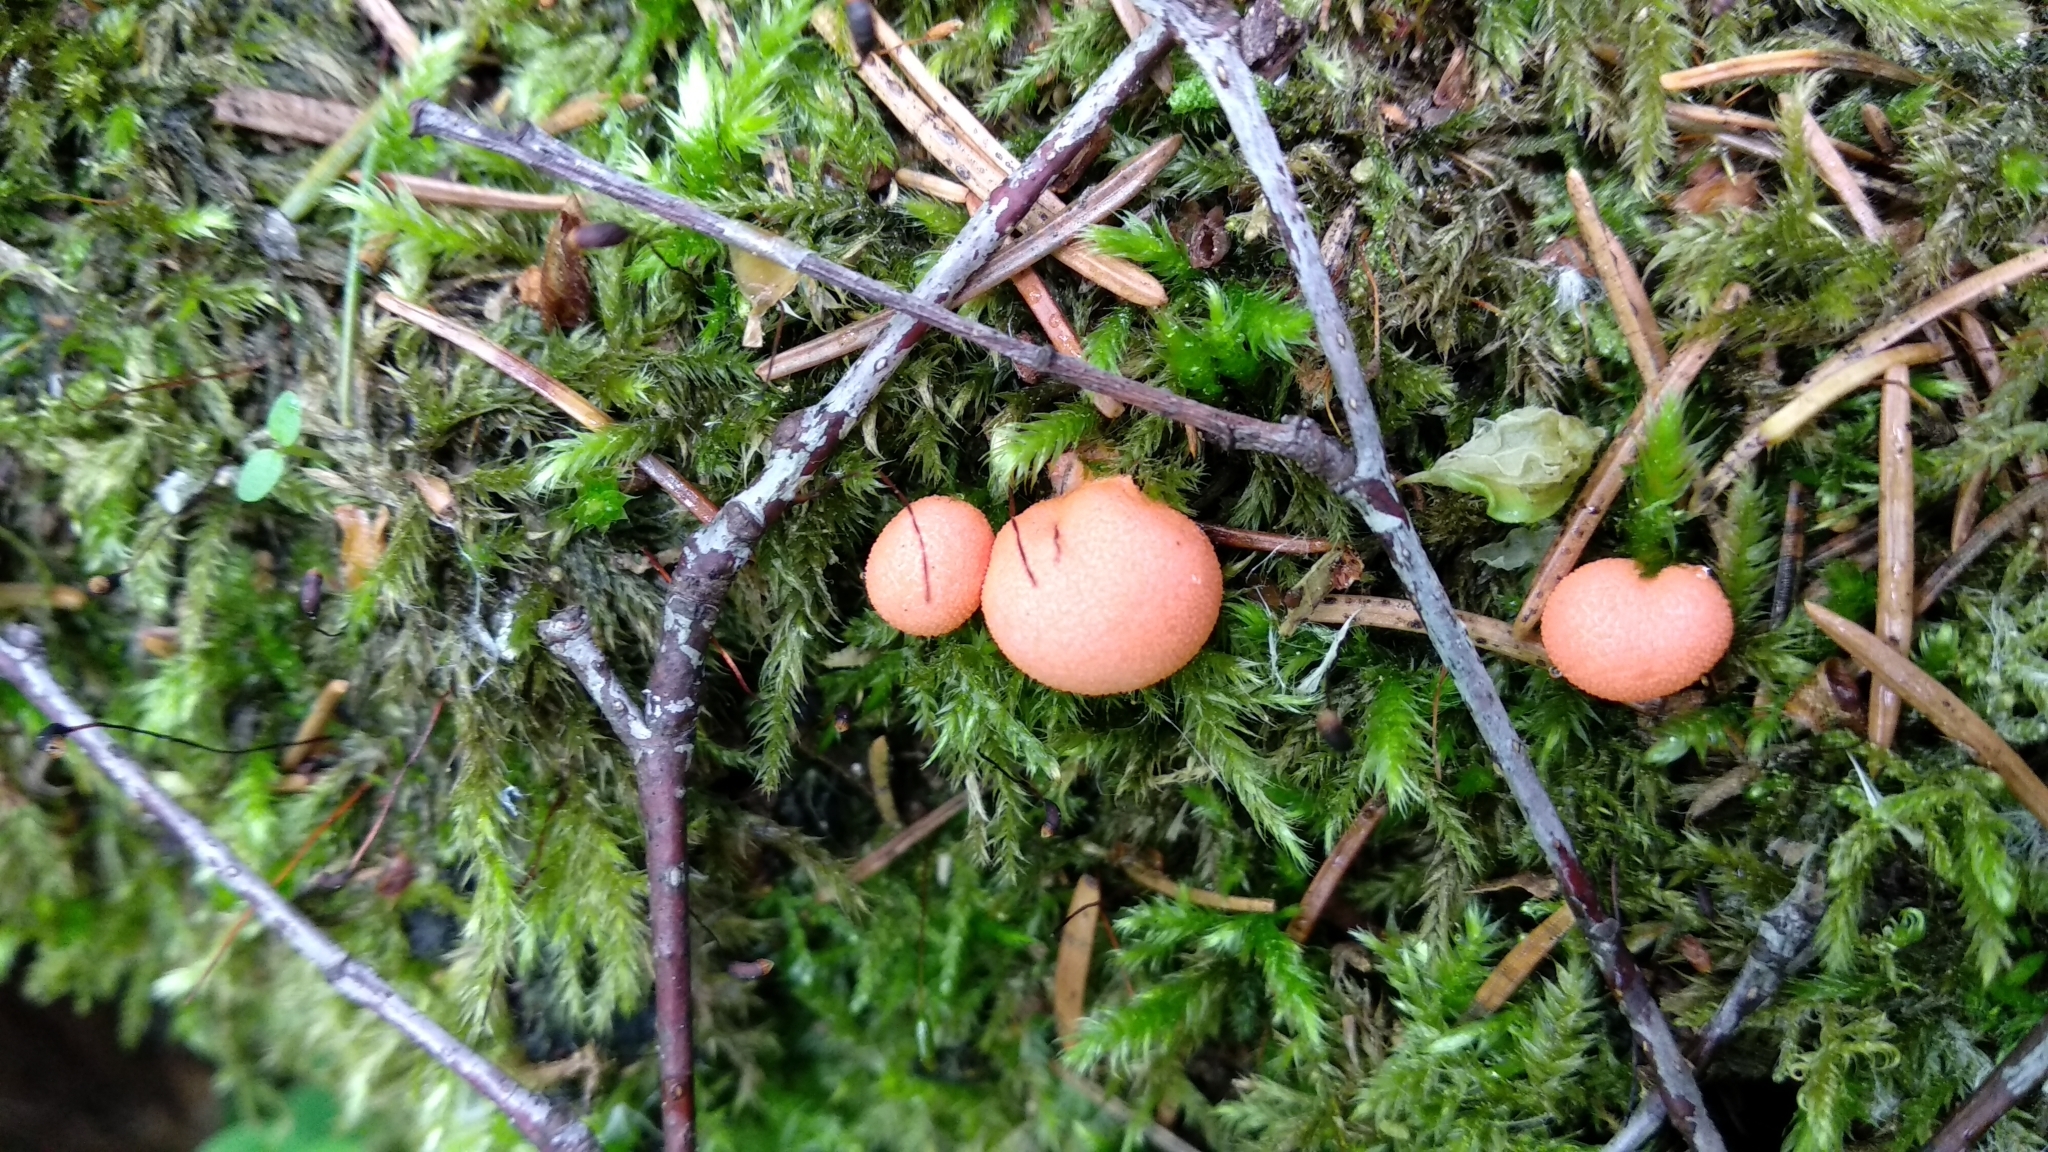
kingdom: Protozoa
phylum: Mycetozoa
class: Myxomycetes
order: Cribrariales
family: Tubiferaceae
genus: Lycogala
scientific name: Lycogala epidendrum
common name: Wolf's milk
